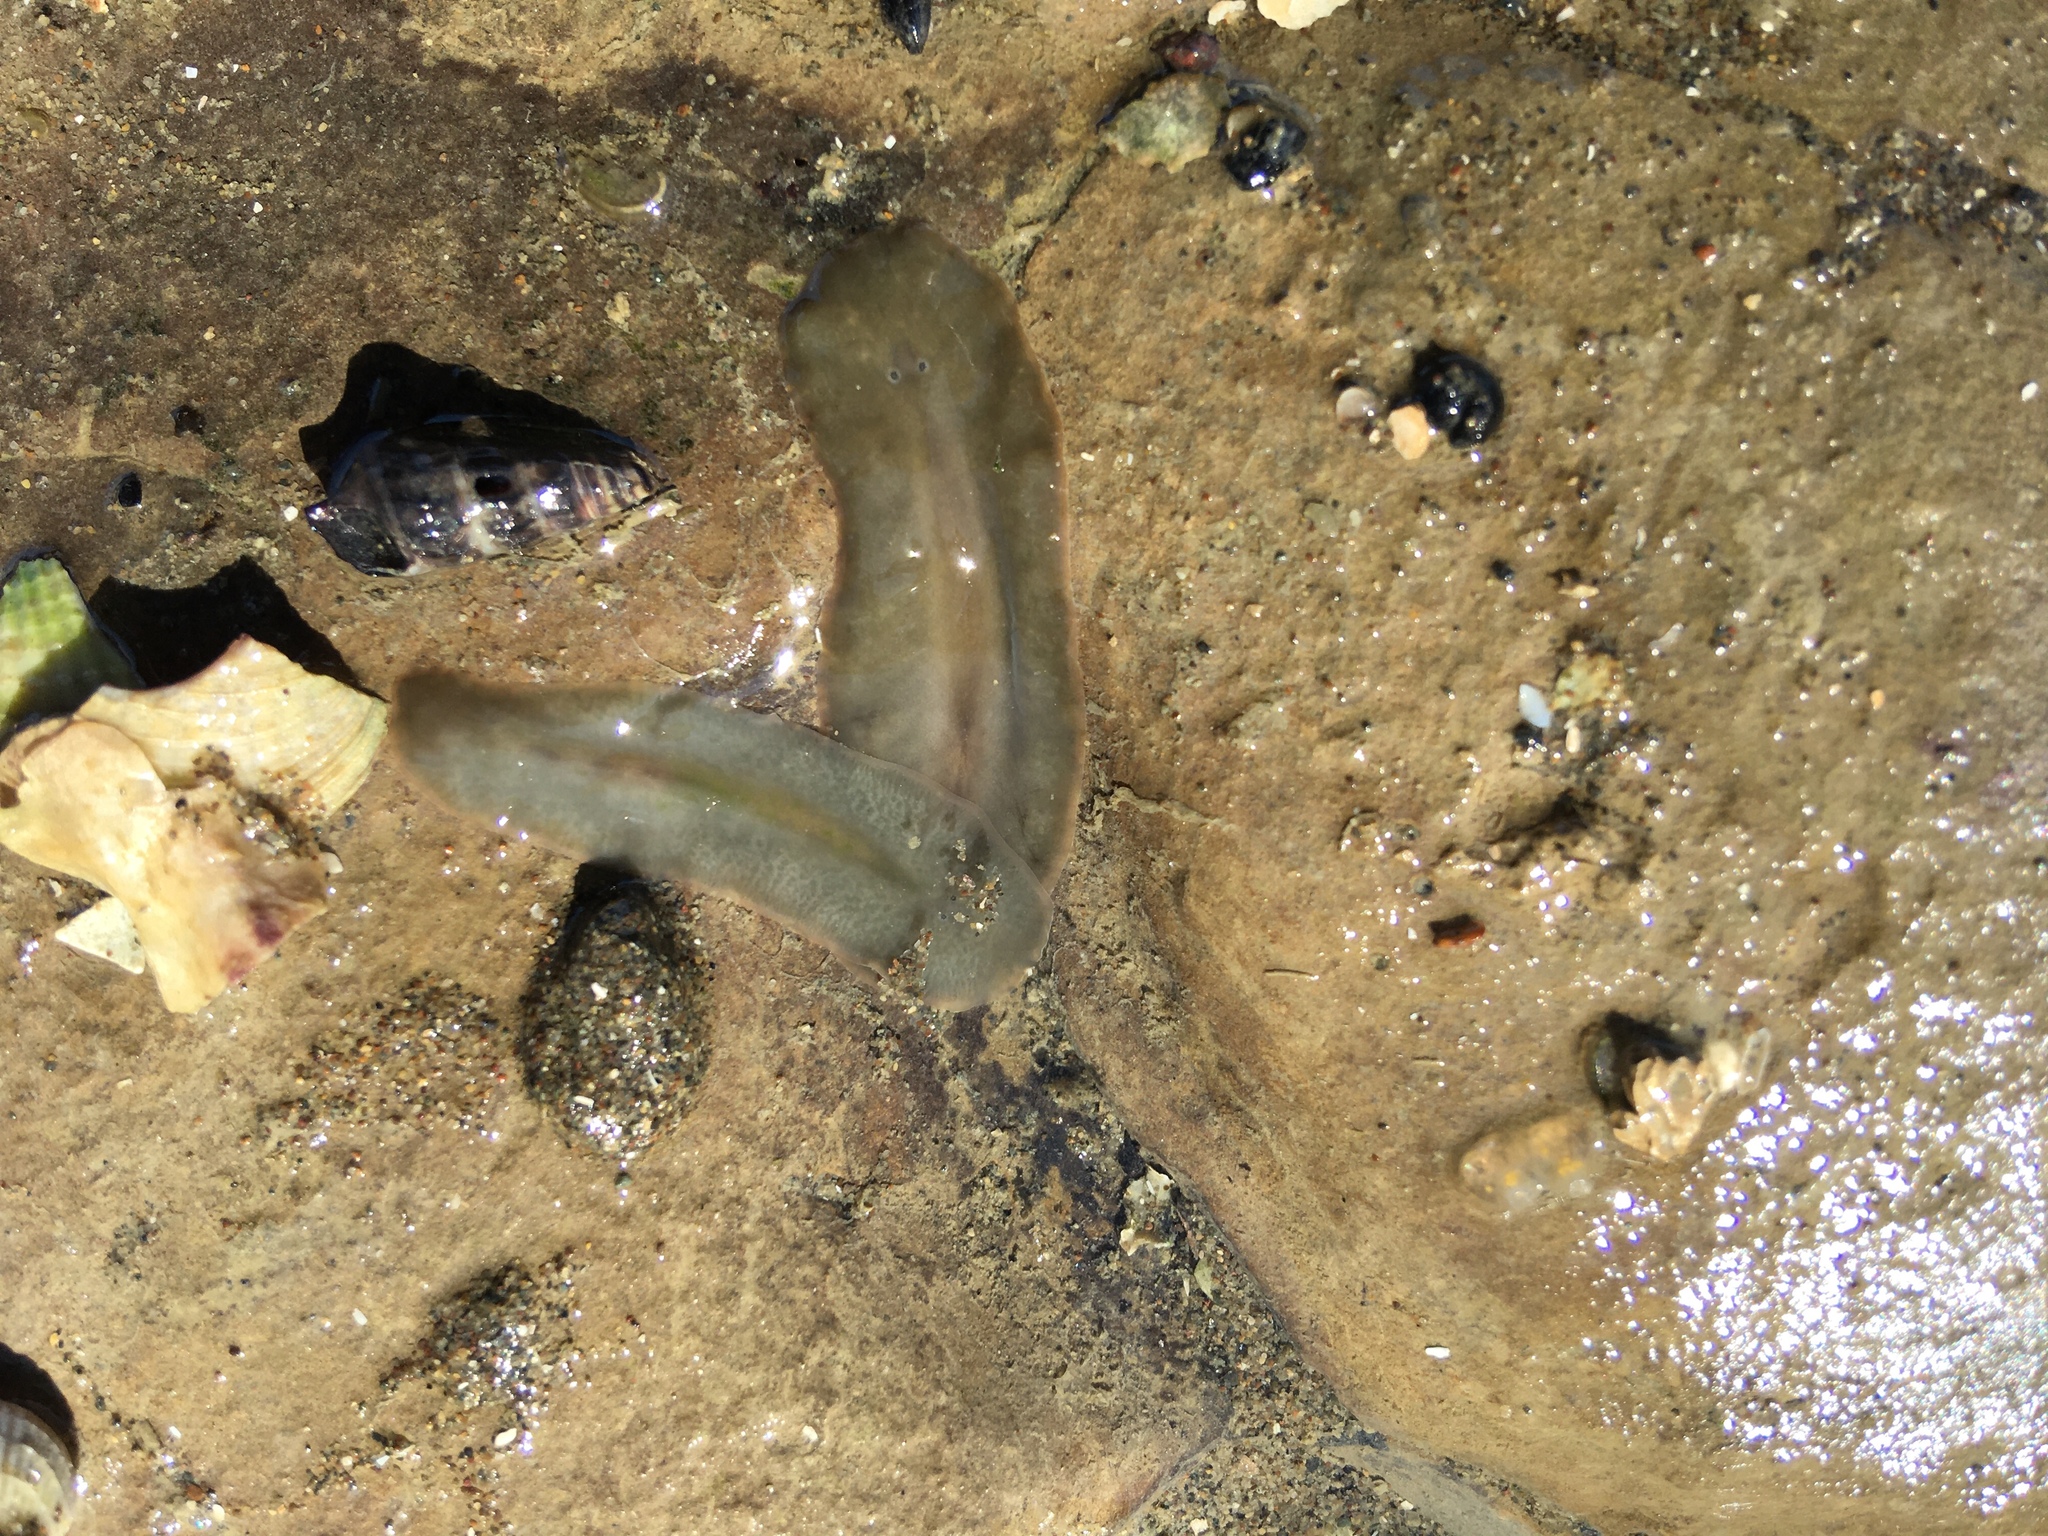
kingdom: Animalia
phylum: Mollusca
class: Gastropoda
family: Batillariidae
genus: Zeacumantus
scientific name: Zeacumantus subcarinatus
